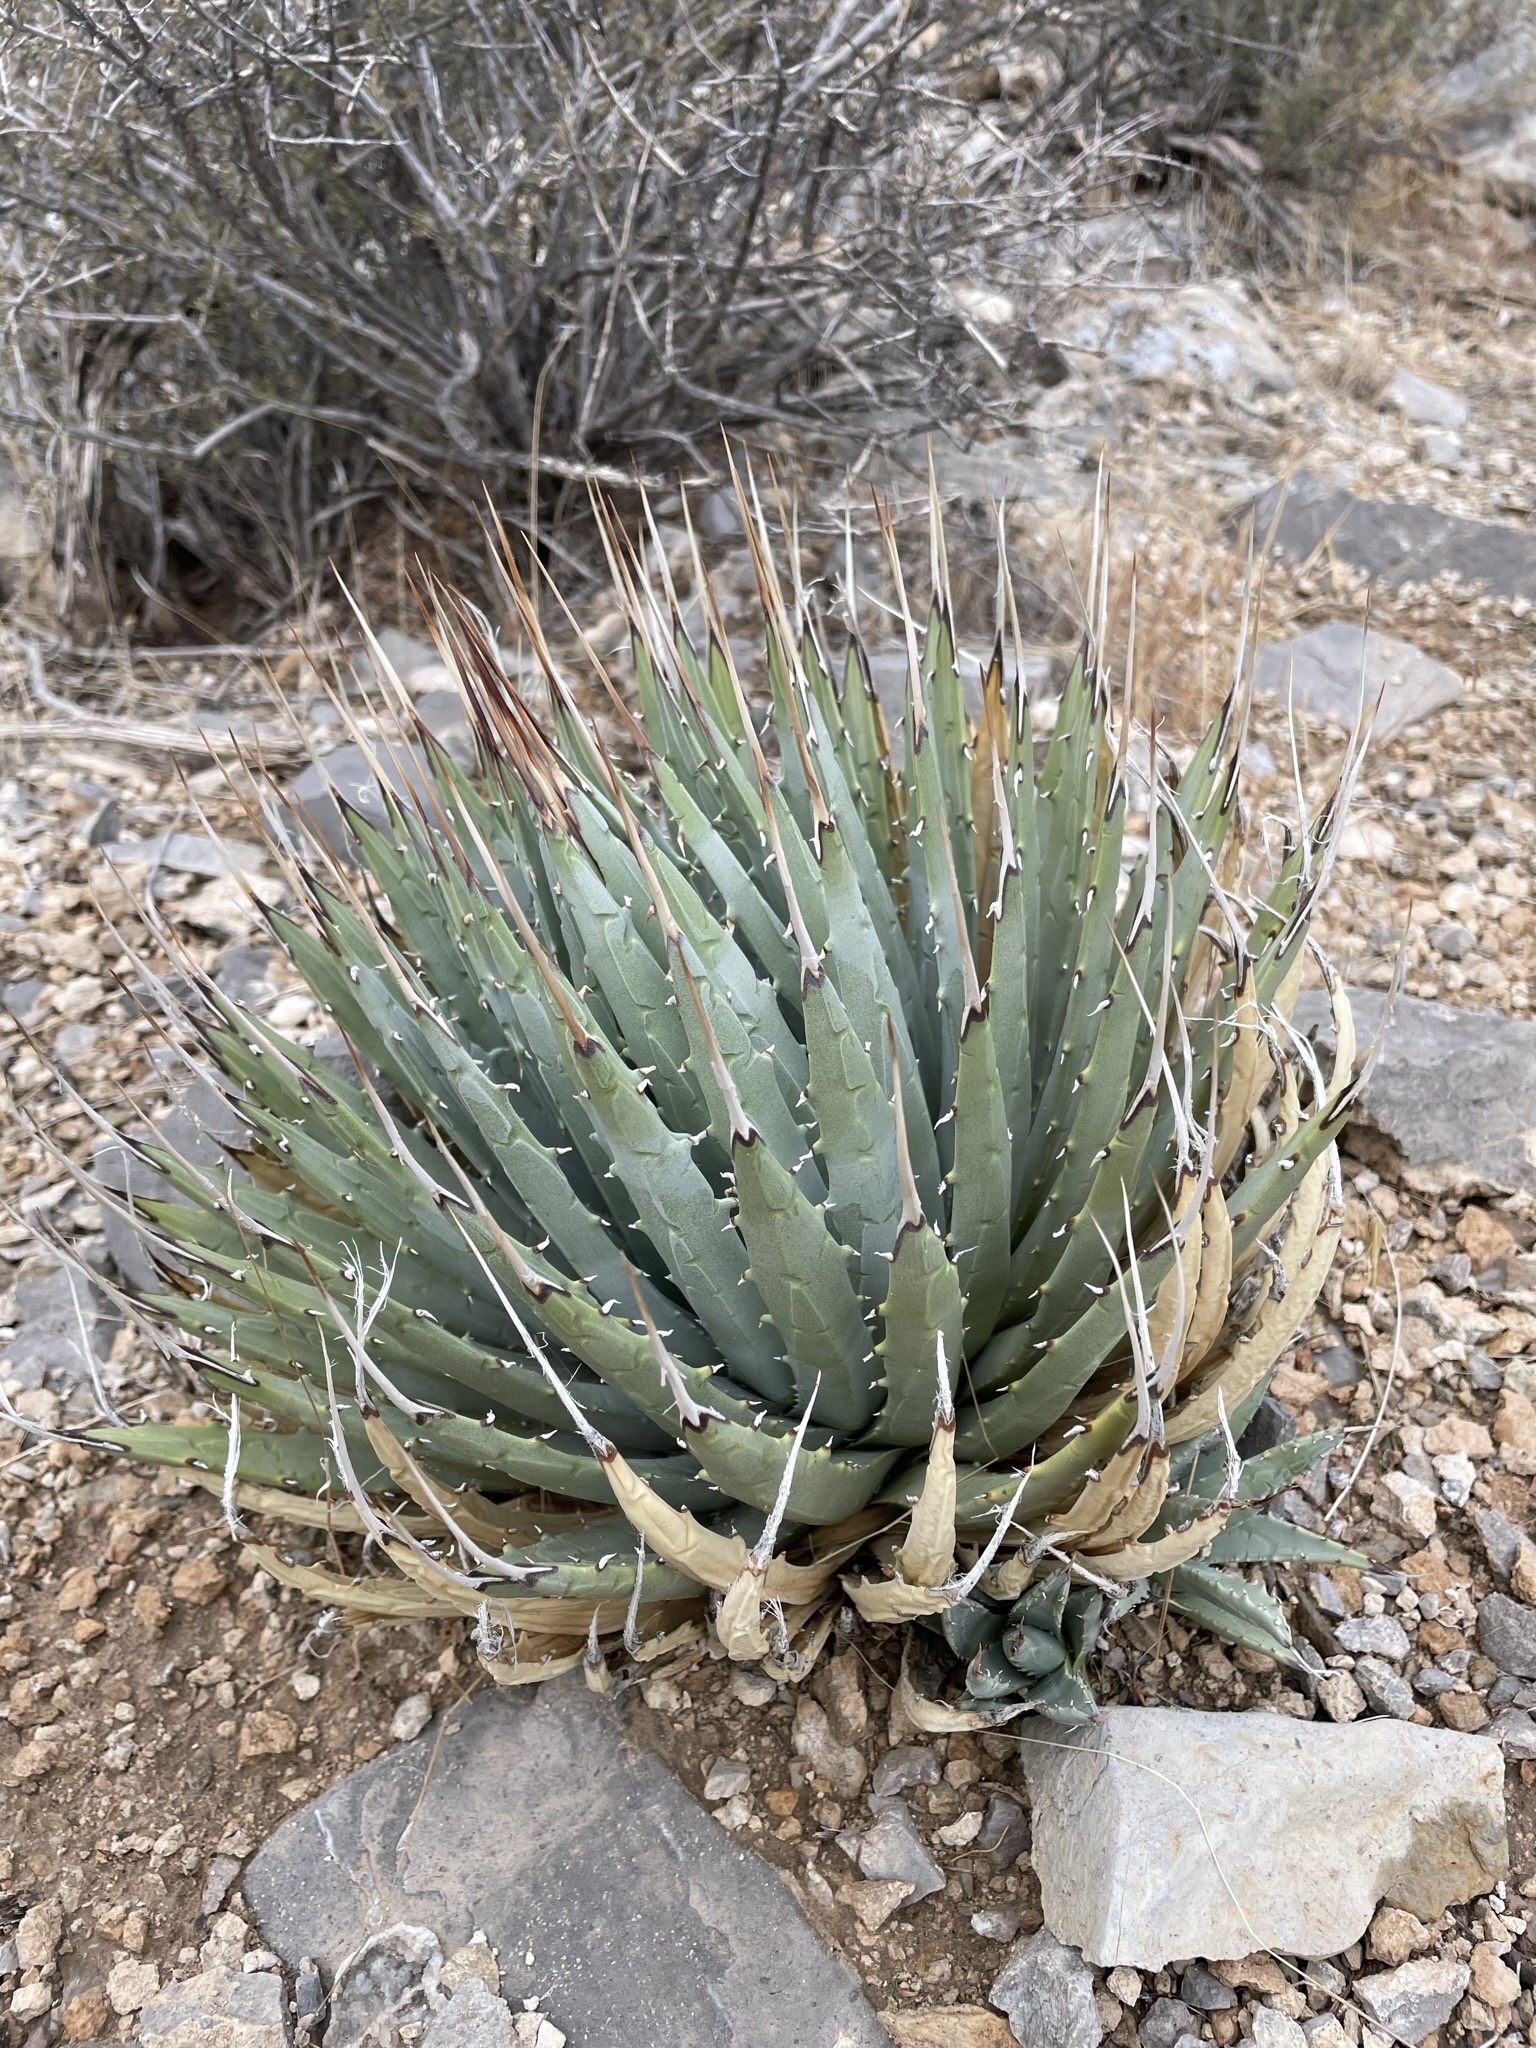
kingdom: Plantae
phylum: Tracheophyta
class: Liliopsida
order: Asparagales
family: Asparagaceae
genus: Agave
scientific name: Agave utahensis
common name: Utah agave
